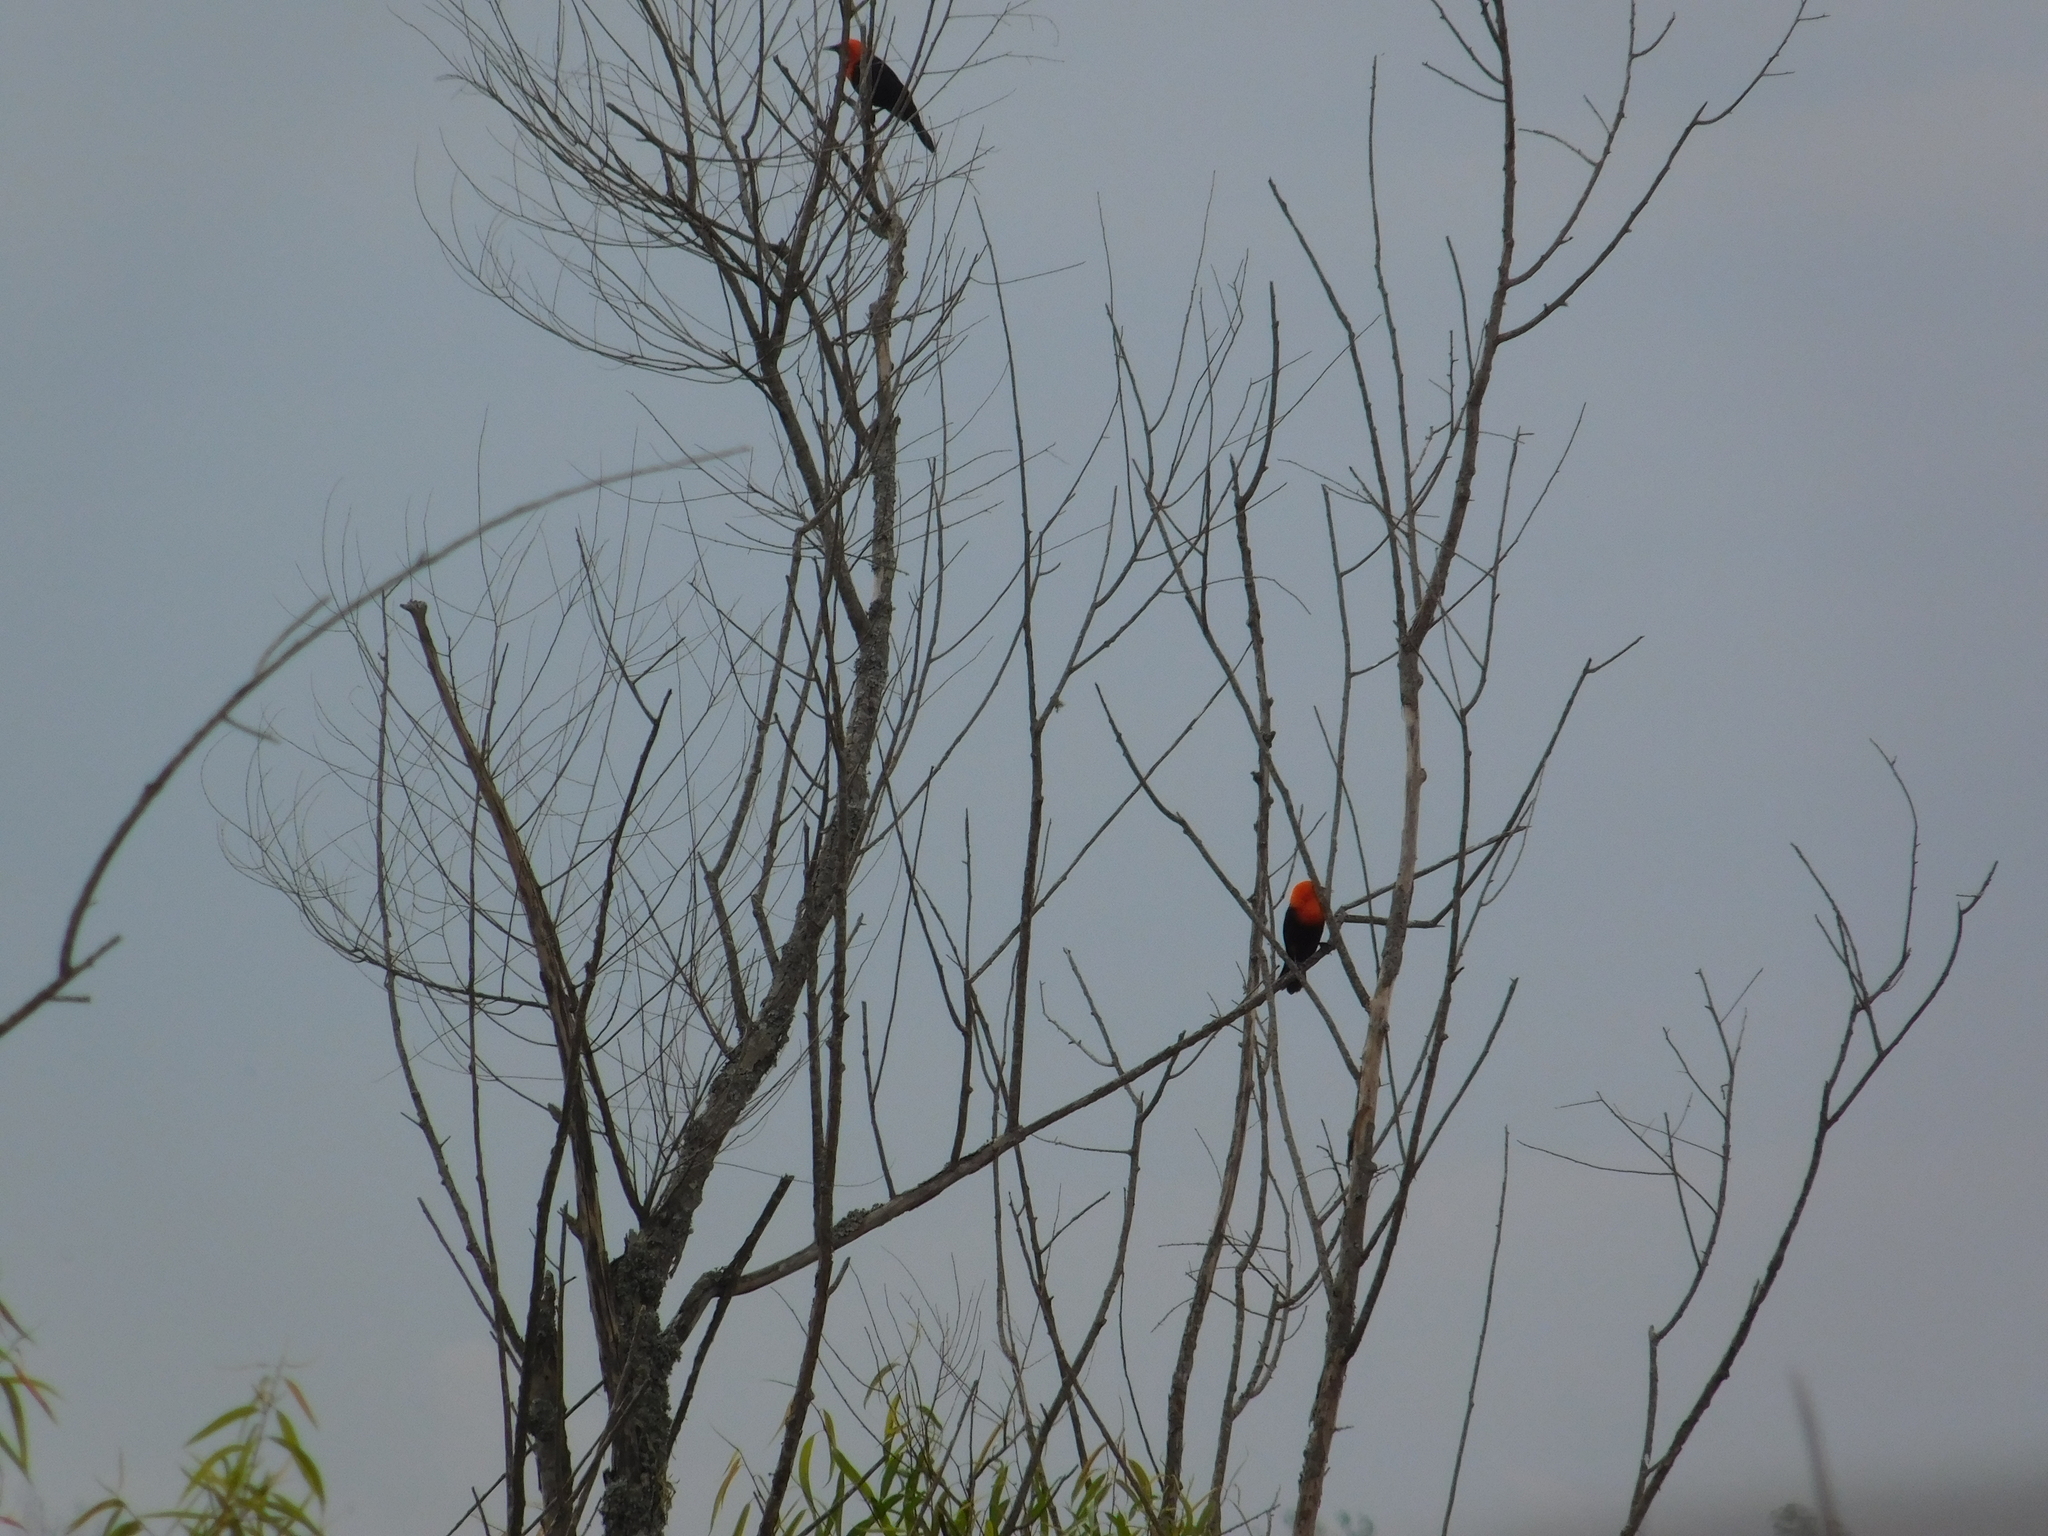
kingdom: Animalia
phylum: Chordata
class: Aves
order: Passeriformes
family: Icteridae
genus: Amblyramphus
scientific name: Amblyramphus holosericeus
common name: Scarlet-headed blackbird
